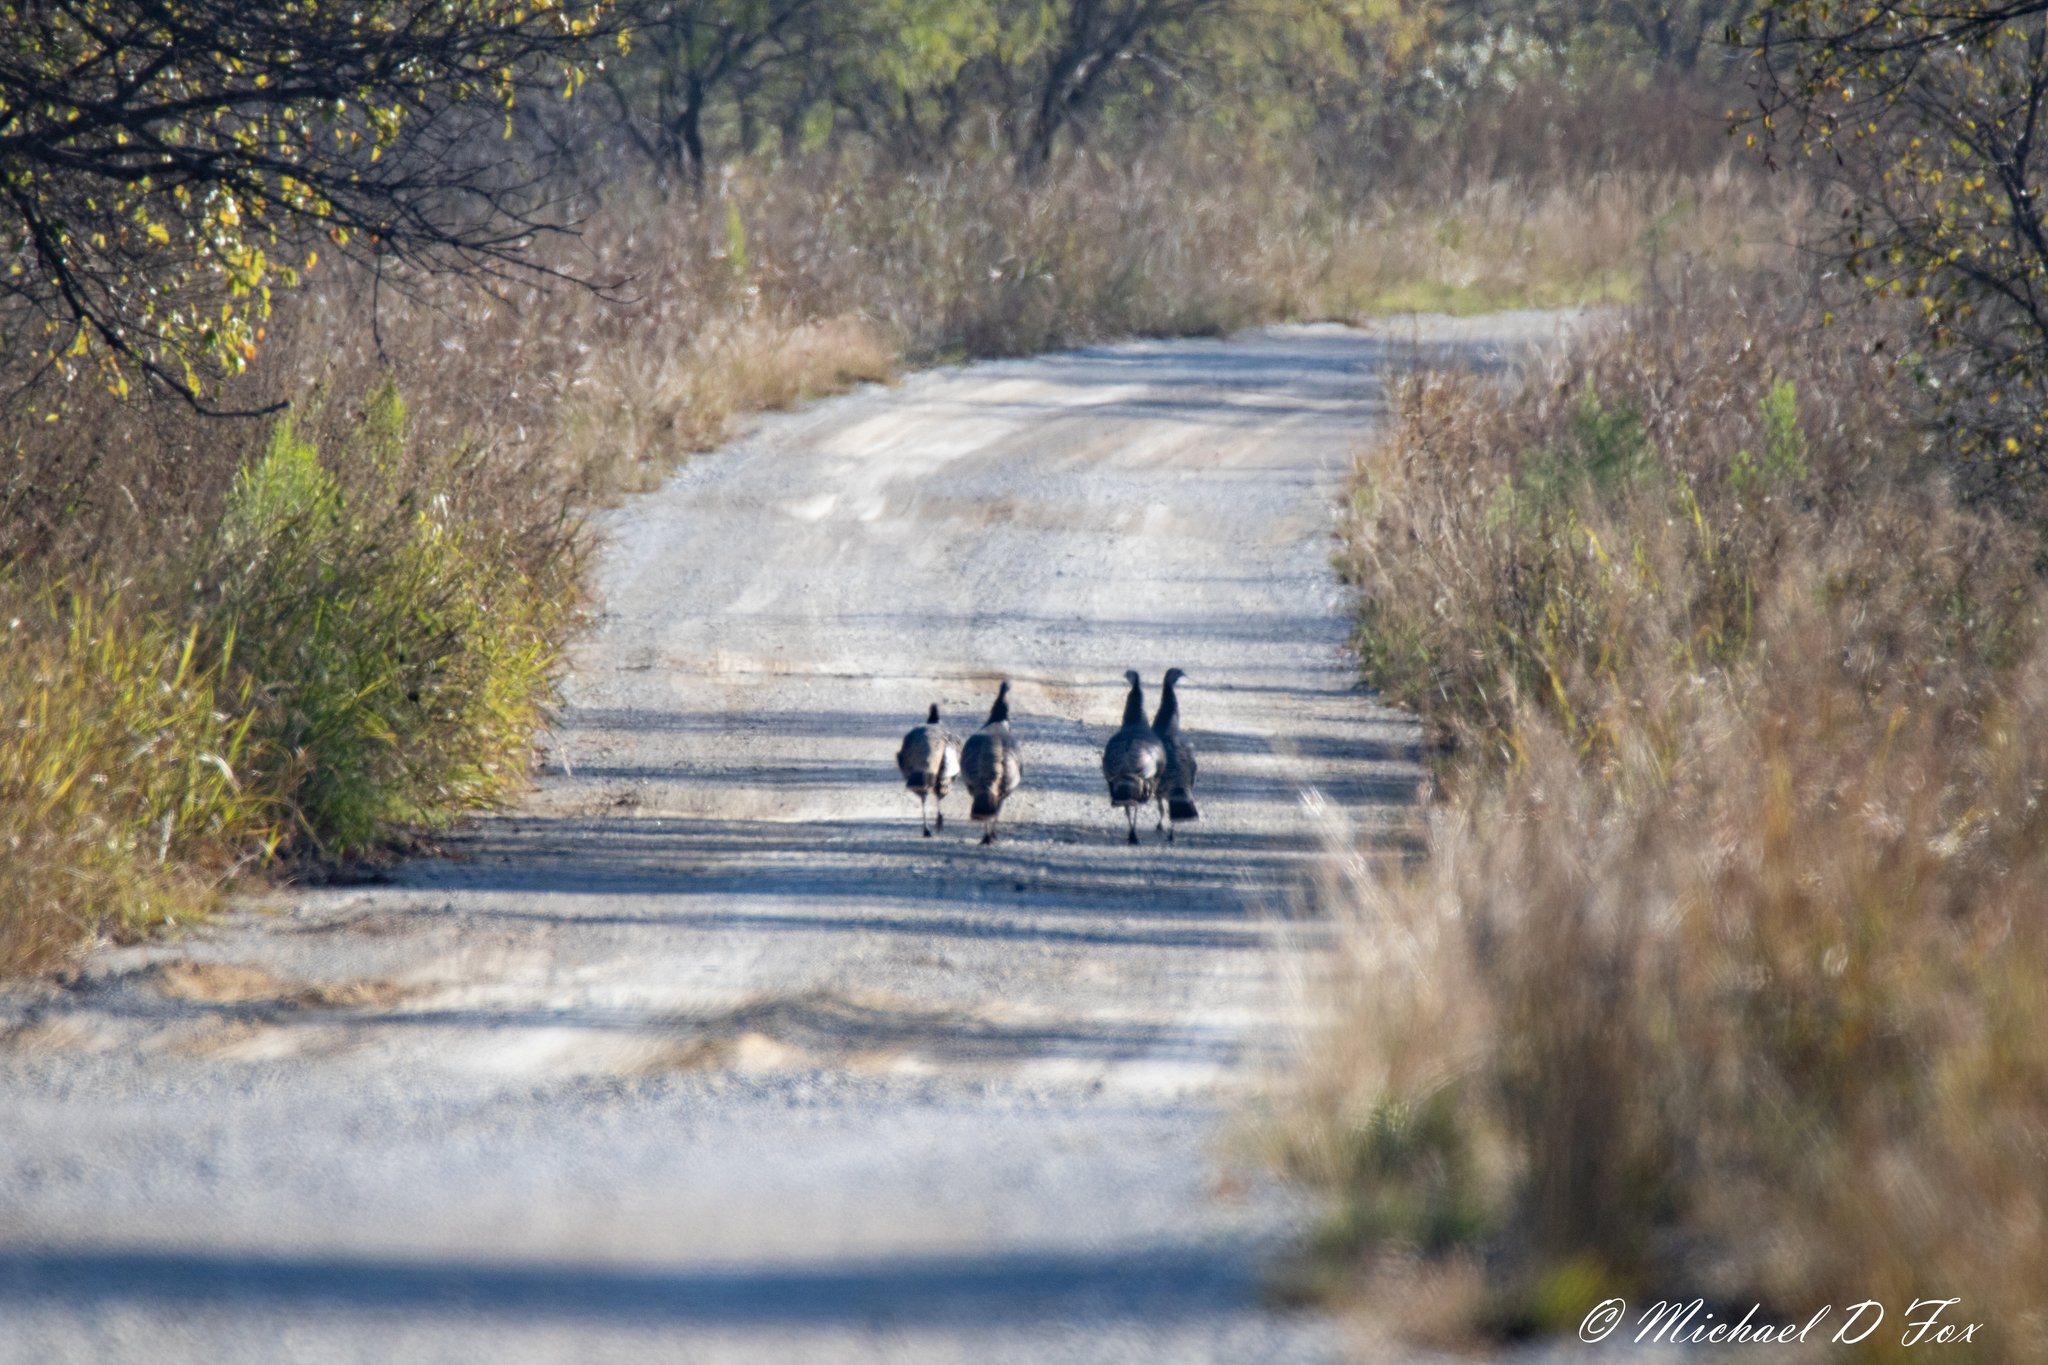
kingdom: Animalia
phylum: Chordata
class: Aves
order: Galliformes
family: Phasianidae
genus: Meleagris
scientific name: Meleagris gallopavo
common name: Wild turkey
